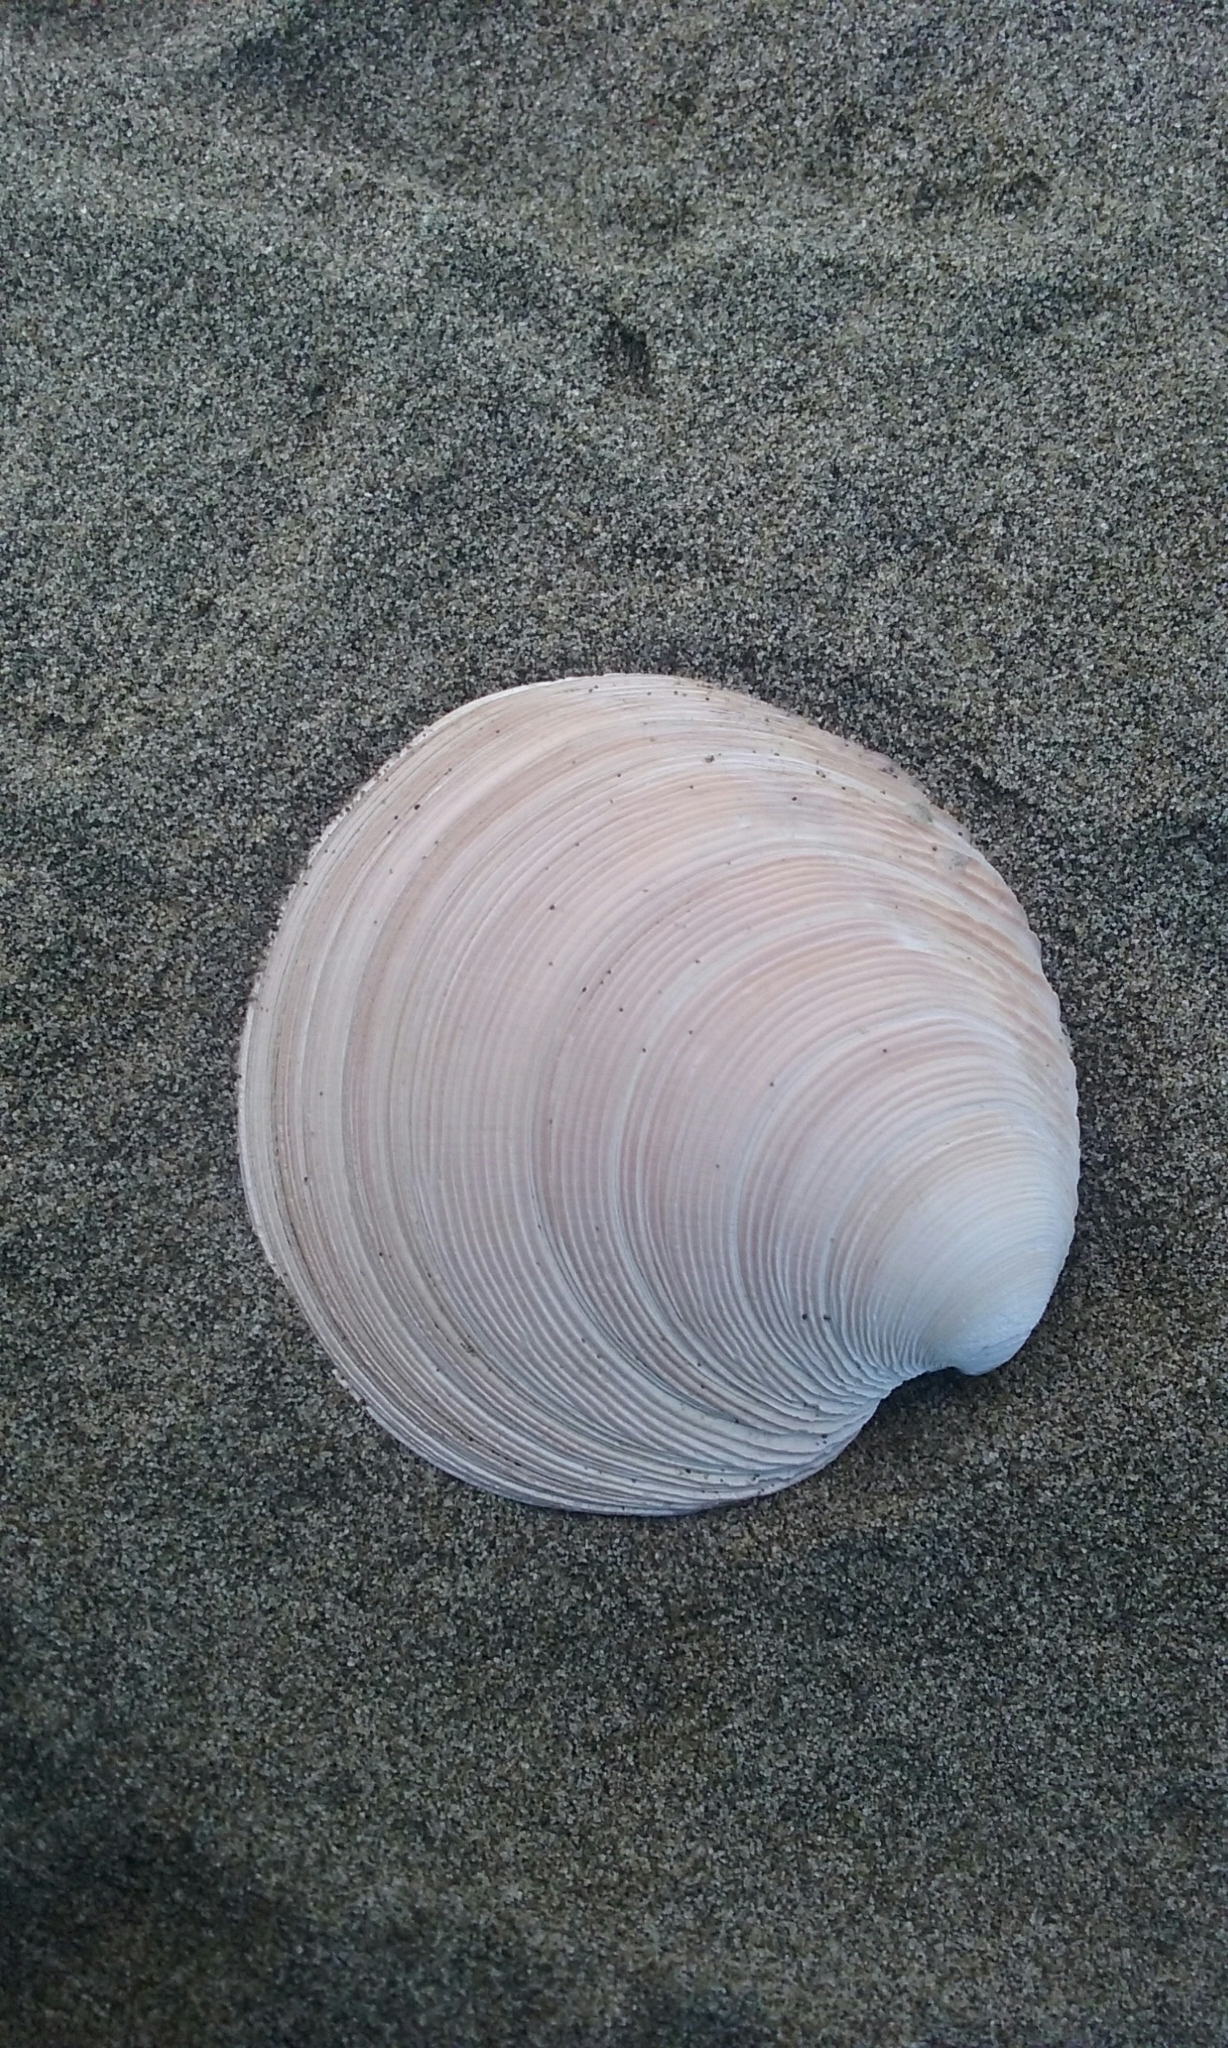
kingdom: Animalia
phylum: Mollusca
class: Bivalvia
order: Venerida
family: Veneridae
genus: Dosinia
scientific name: Dosinia anus
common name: Old-woman dosinia
